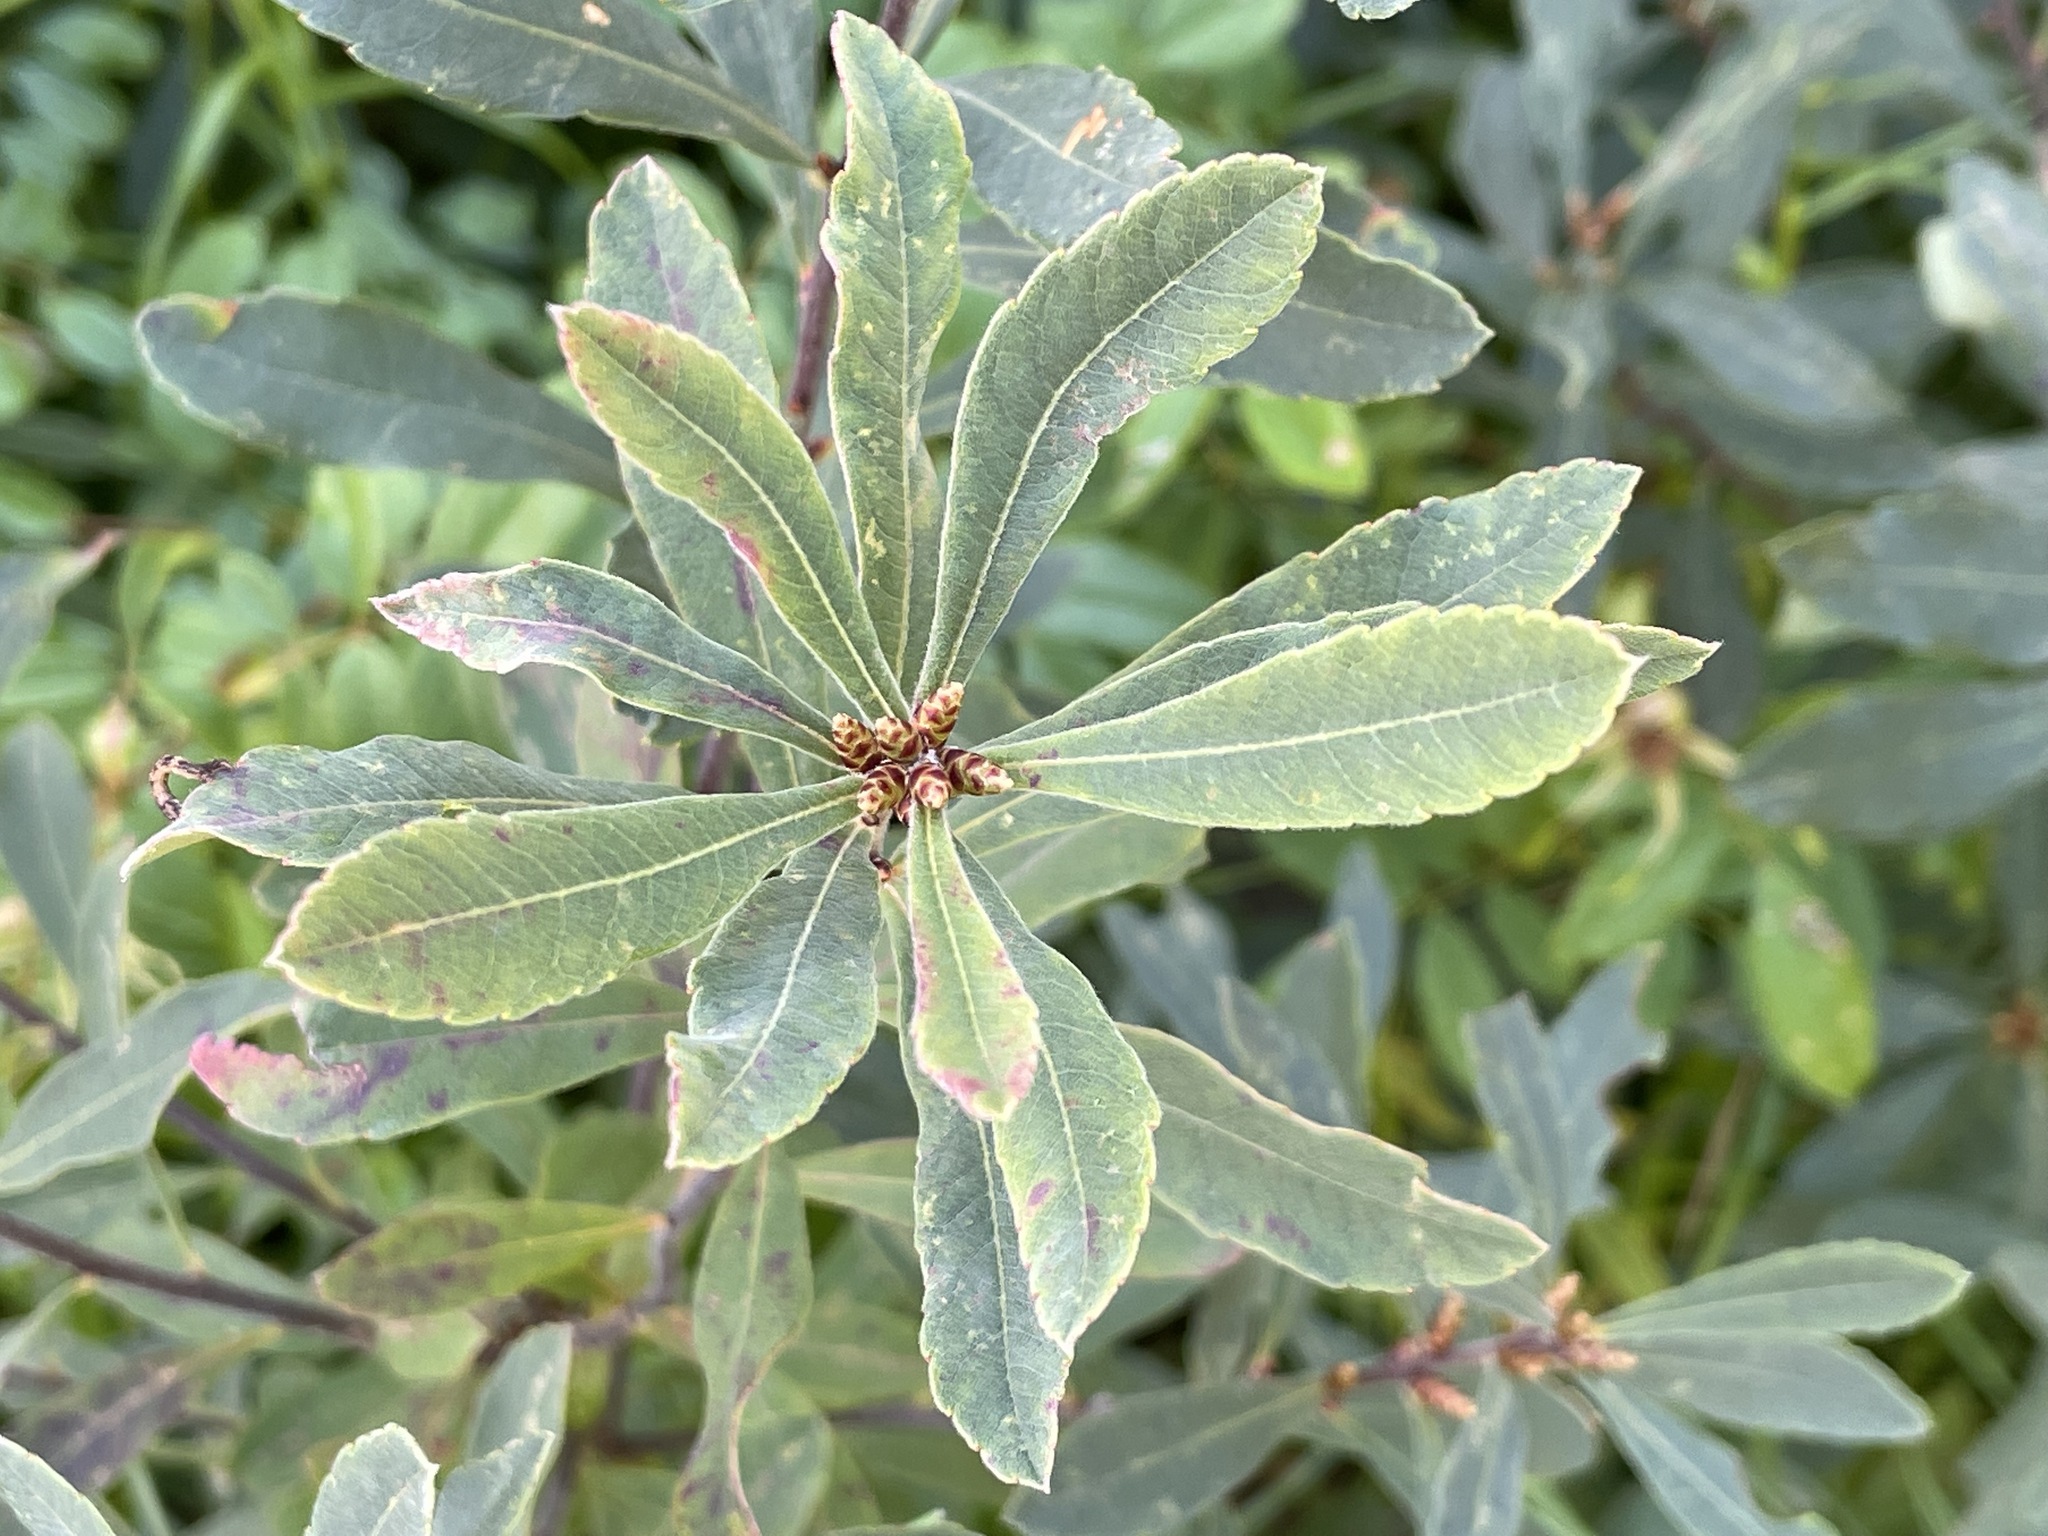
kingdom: Plantae
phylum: Tracheophyta
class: Magnoliopsida
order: Fagales
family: Myricaceae
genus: Myrica
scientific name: Myrica gale
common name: Sweet gale
